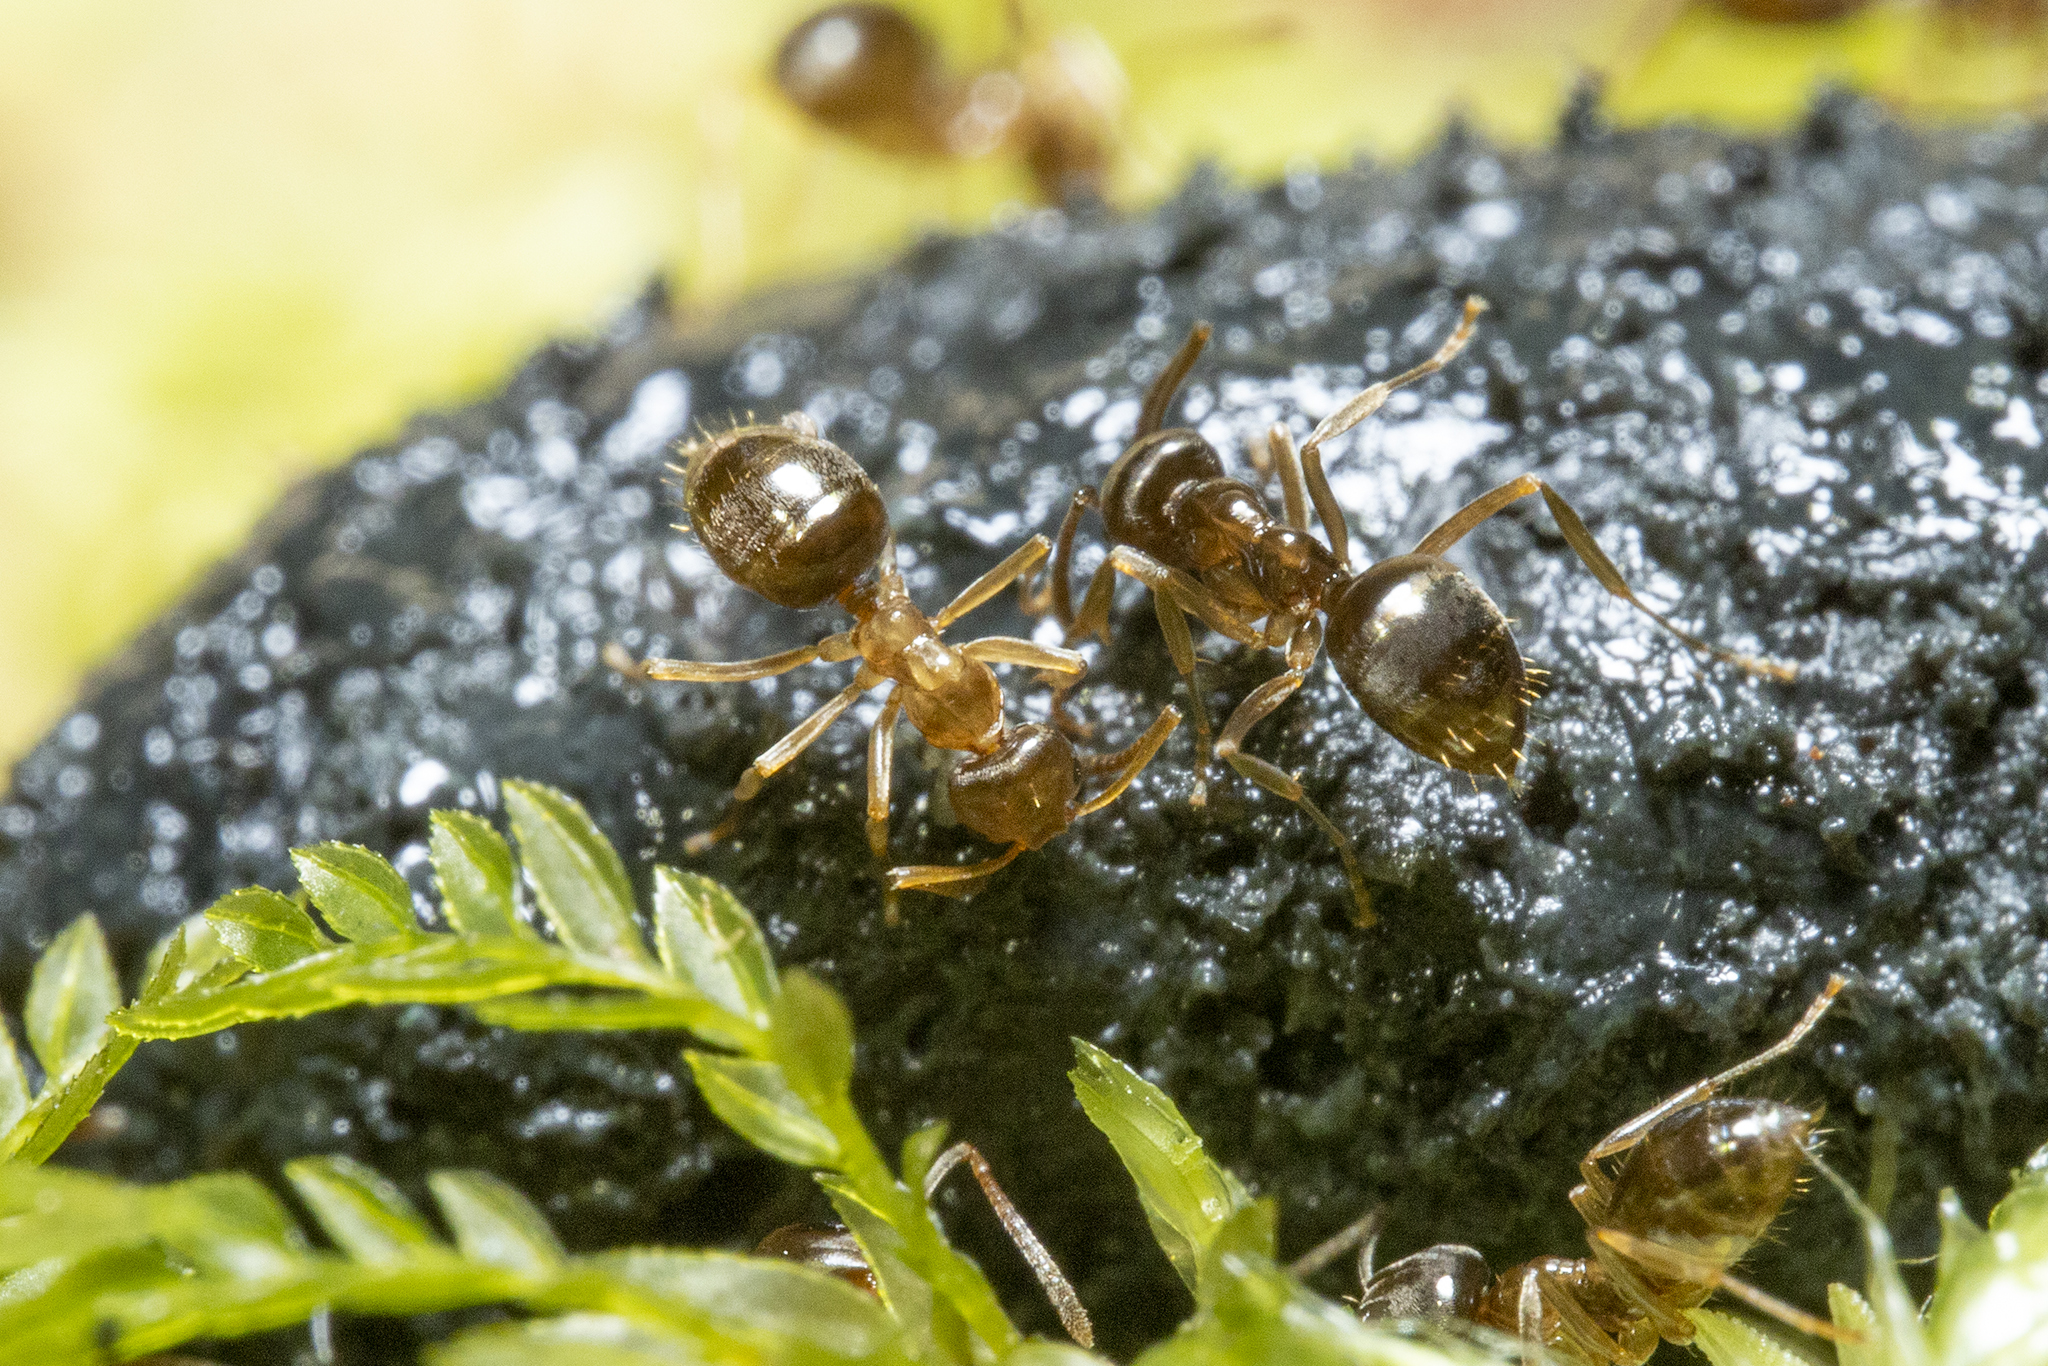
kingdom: Animalia
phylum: Arthropoda
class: Insecta
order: Hymenoptera
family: Formicidae
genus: Prolasius
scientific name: Prolasius advenus
